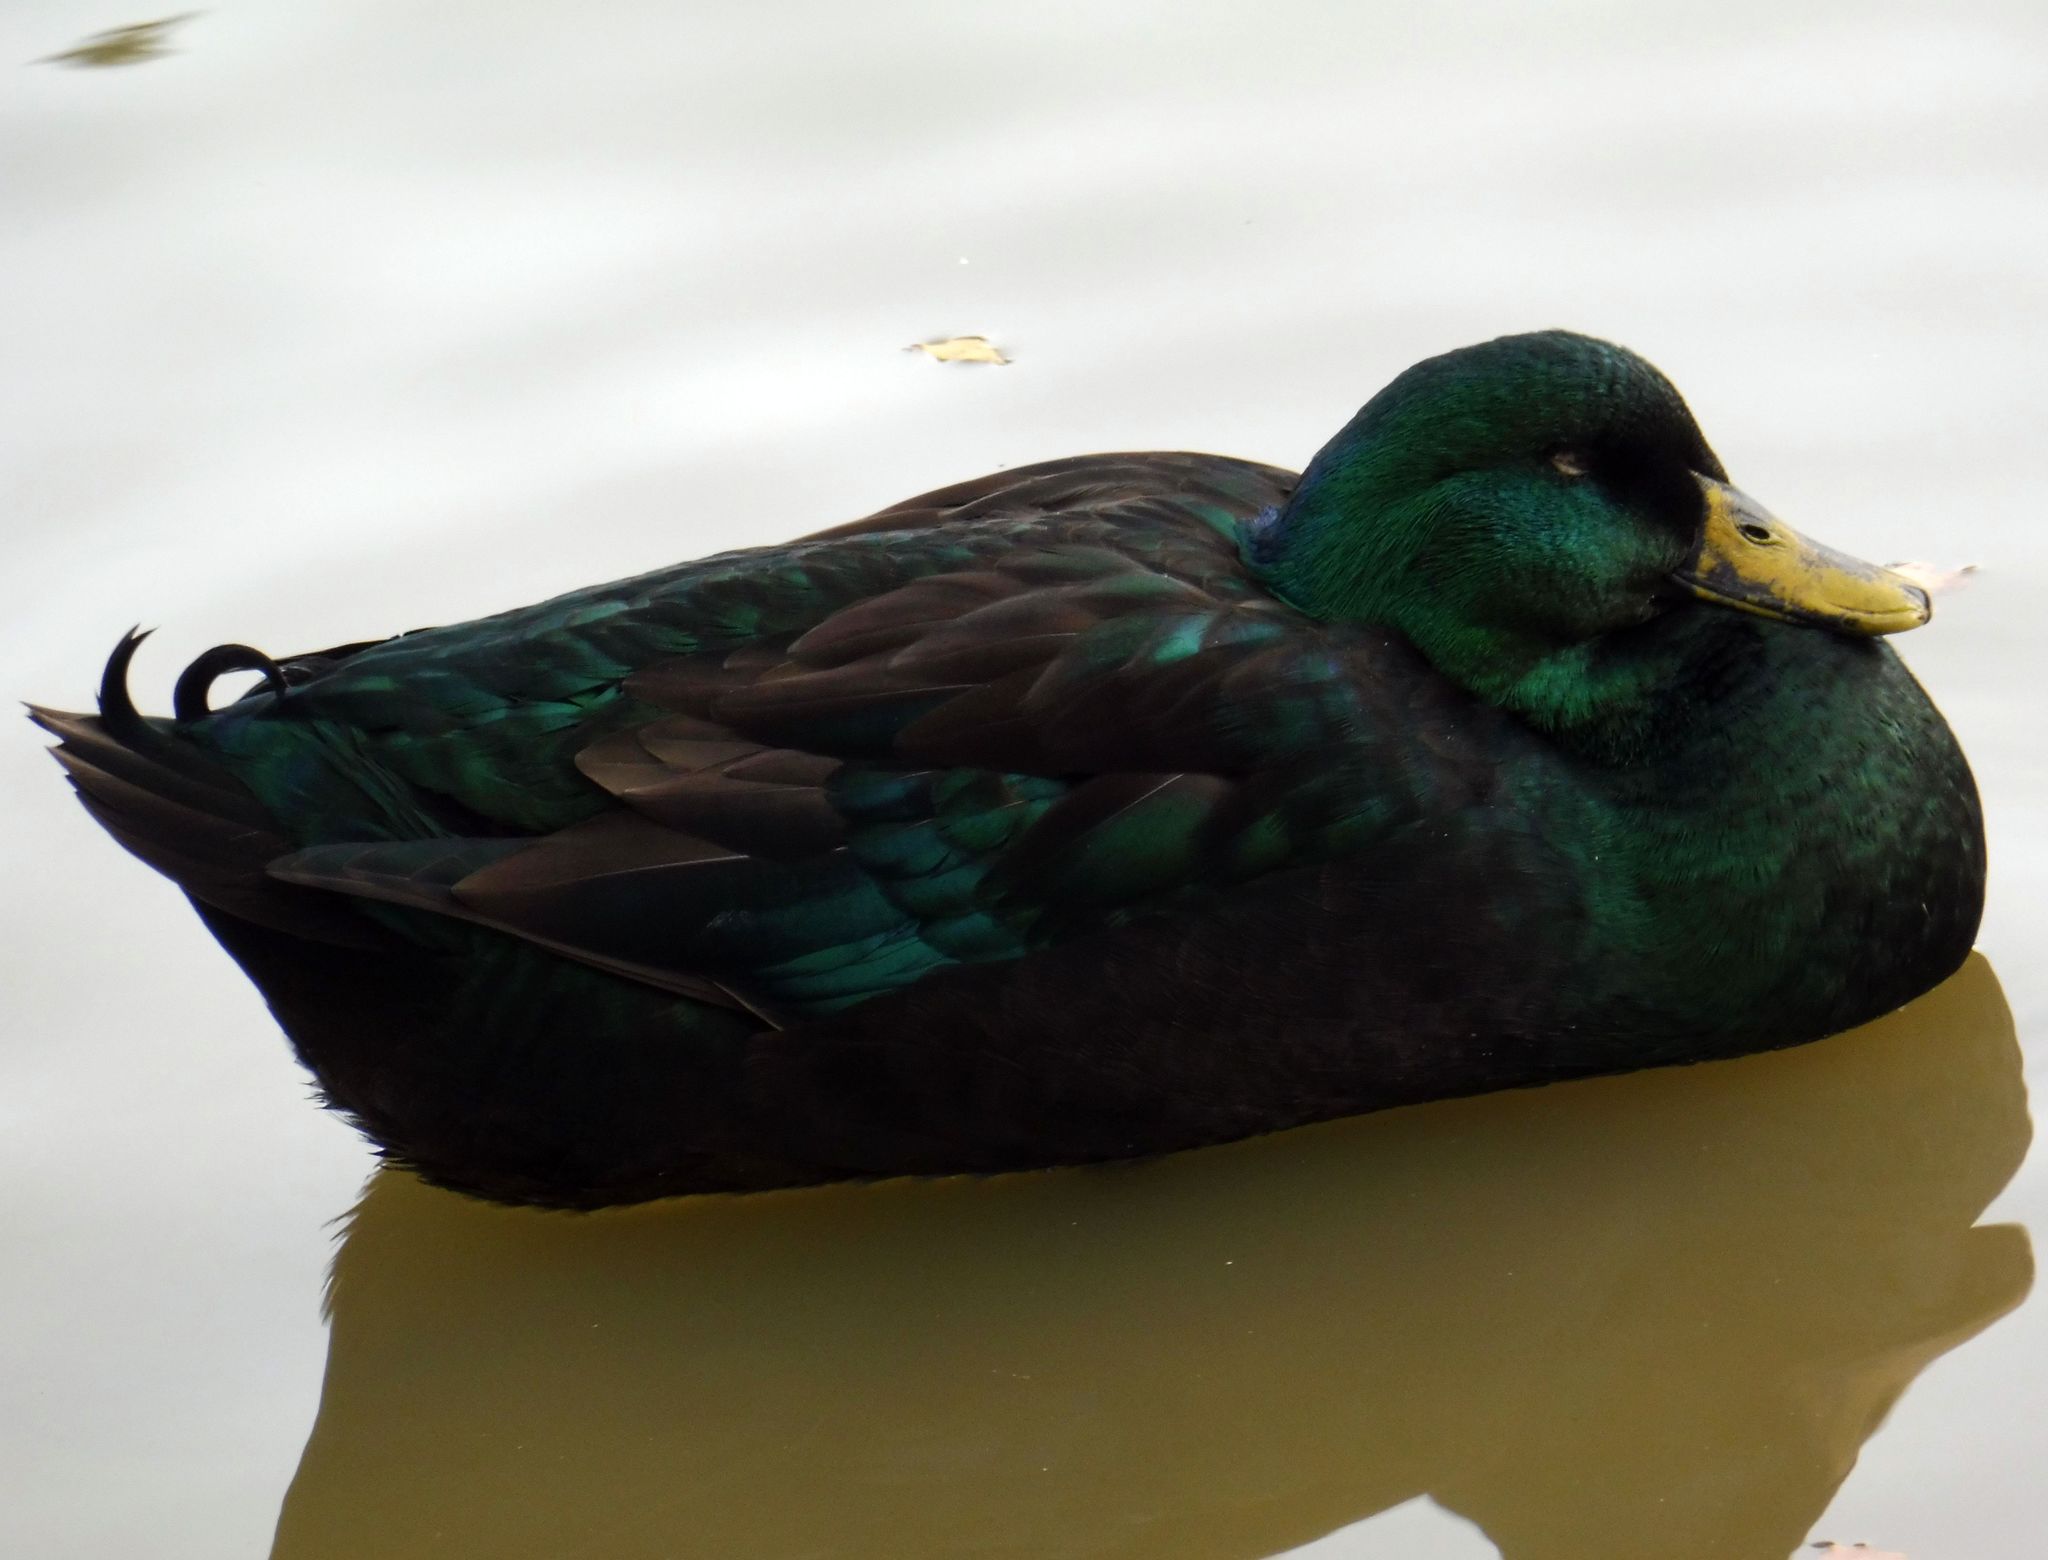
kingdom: Animalia
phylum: Chordata
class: Aves
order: Anseriformes
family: Anatidae
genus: Anas
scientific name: Anas platyrhynchos
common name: Mallard
